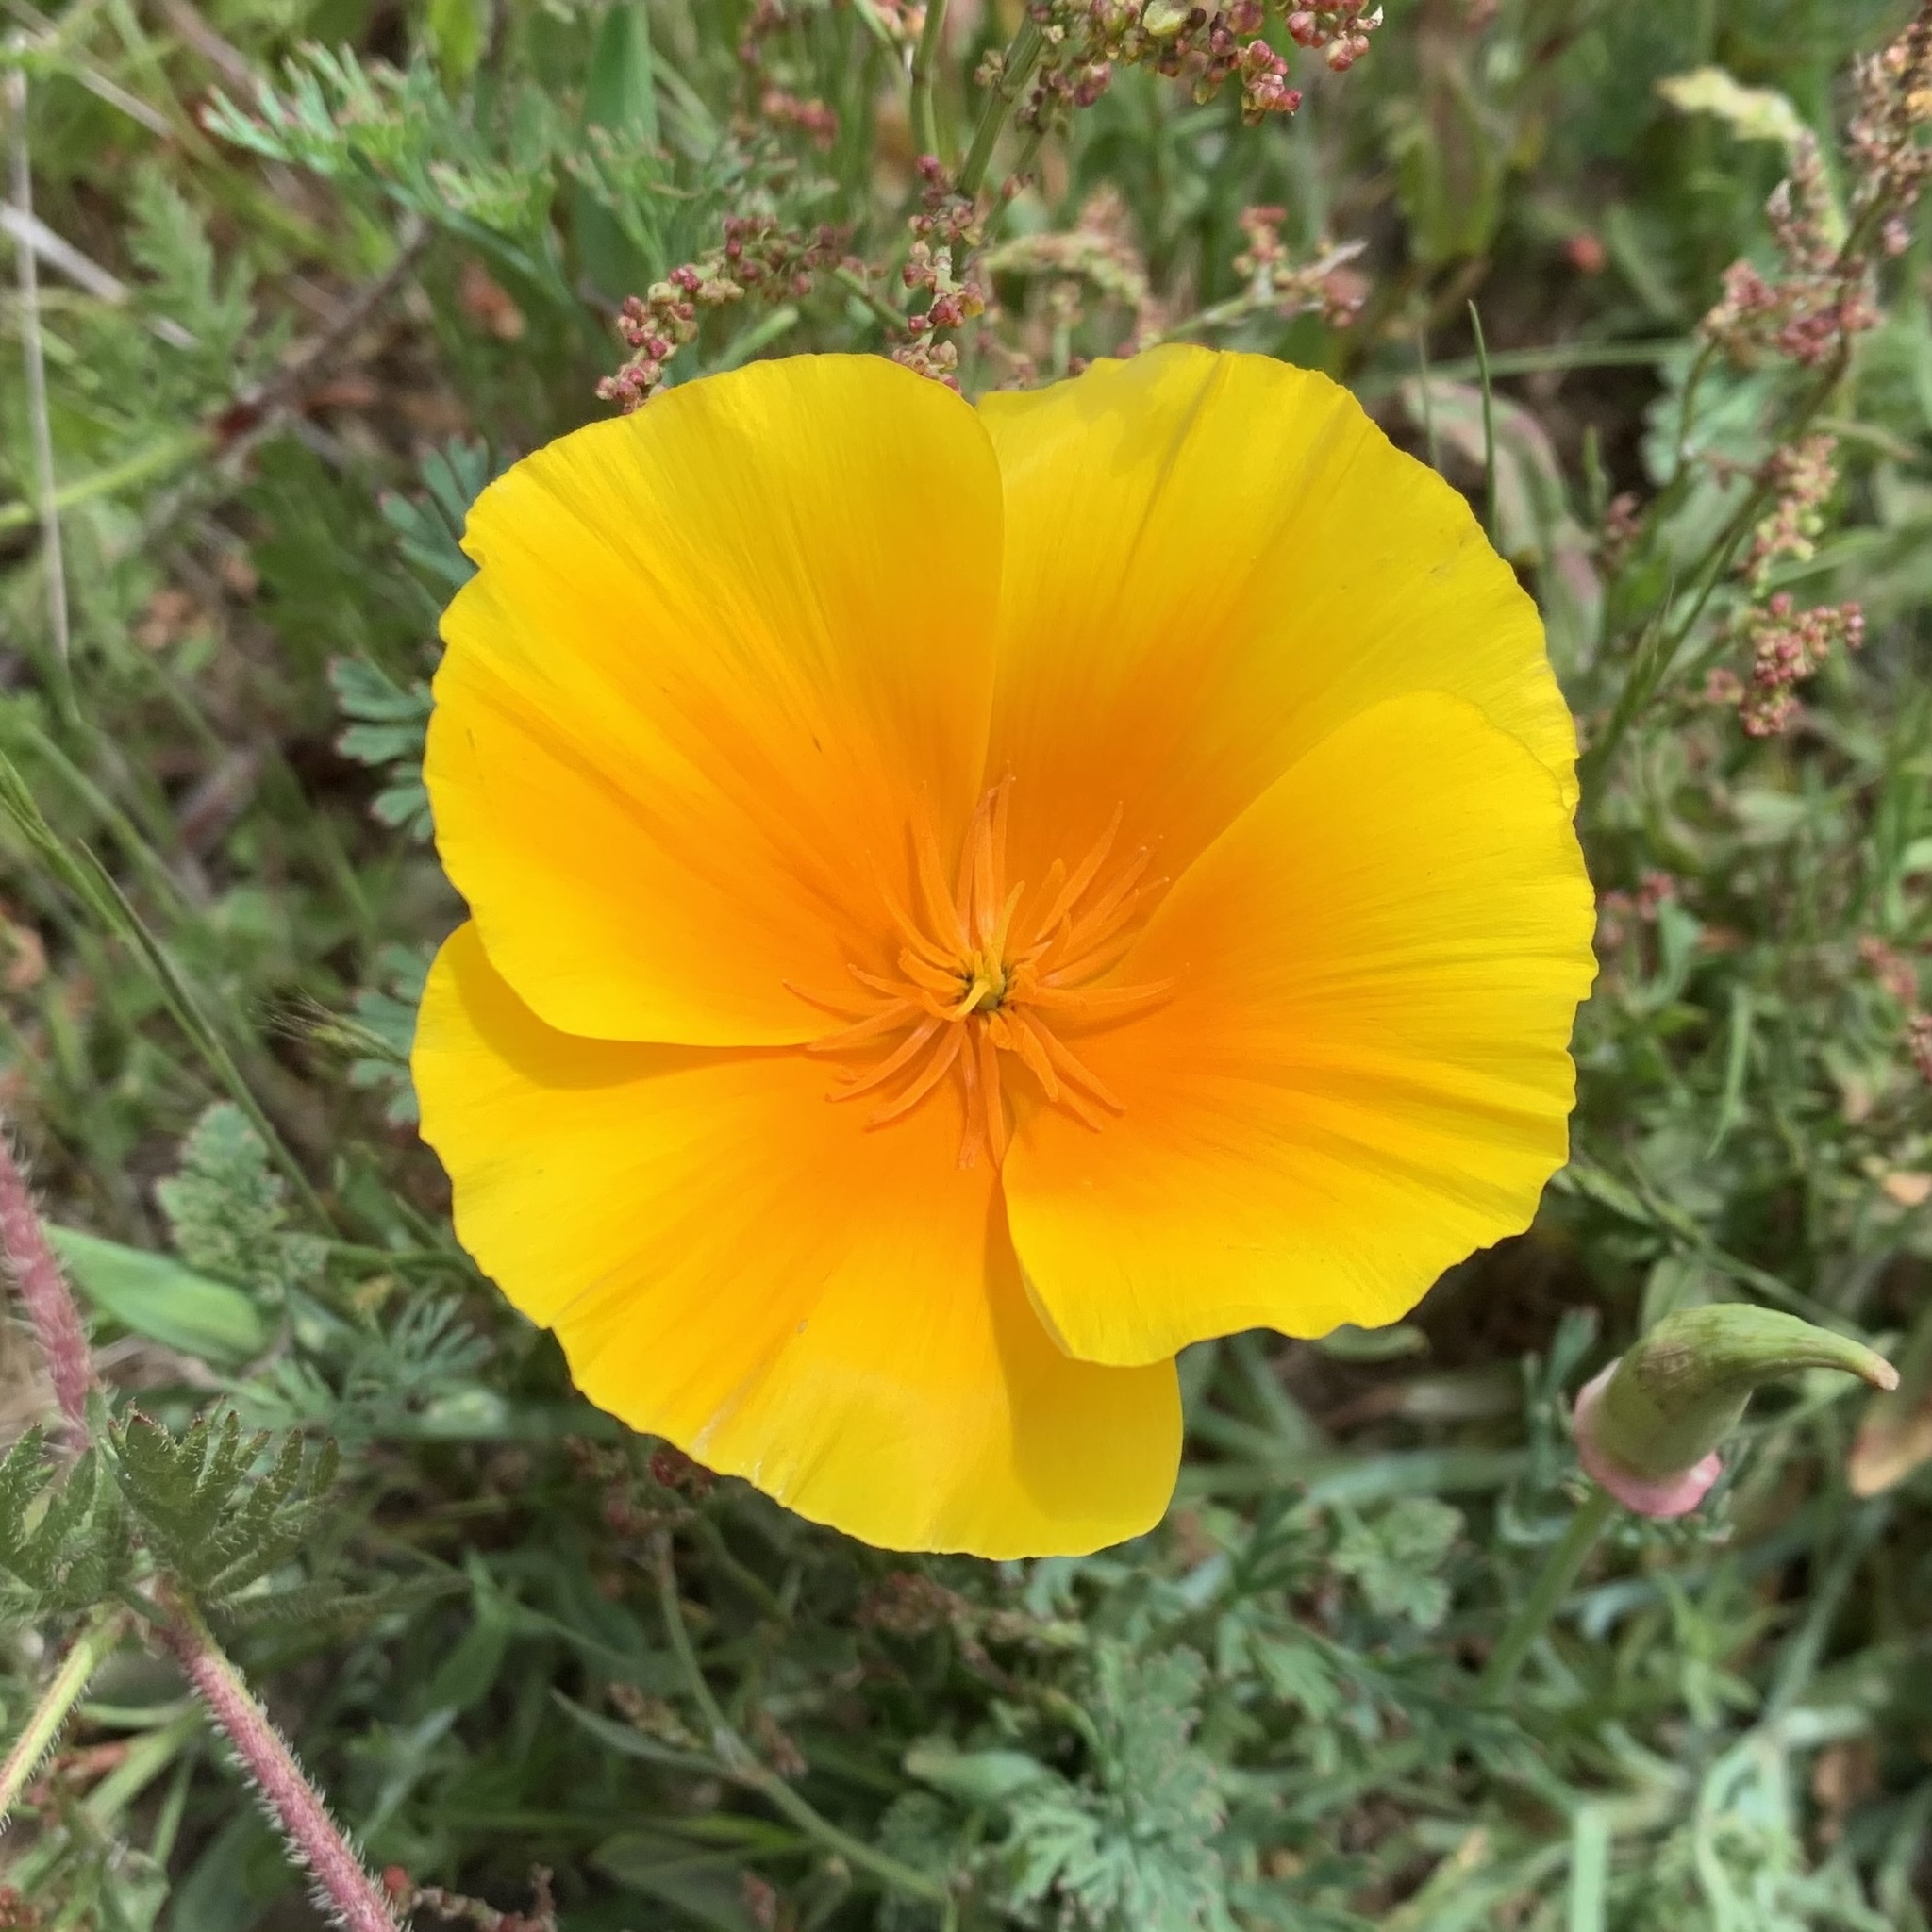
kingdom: Plantae
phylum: Tracheophyta
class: Magnoliopsida
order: Ranunculales
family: Papaveraceae
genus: Eschscholzia
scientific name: Eschscholzia californica
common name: California poppy
